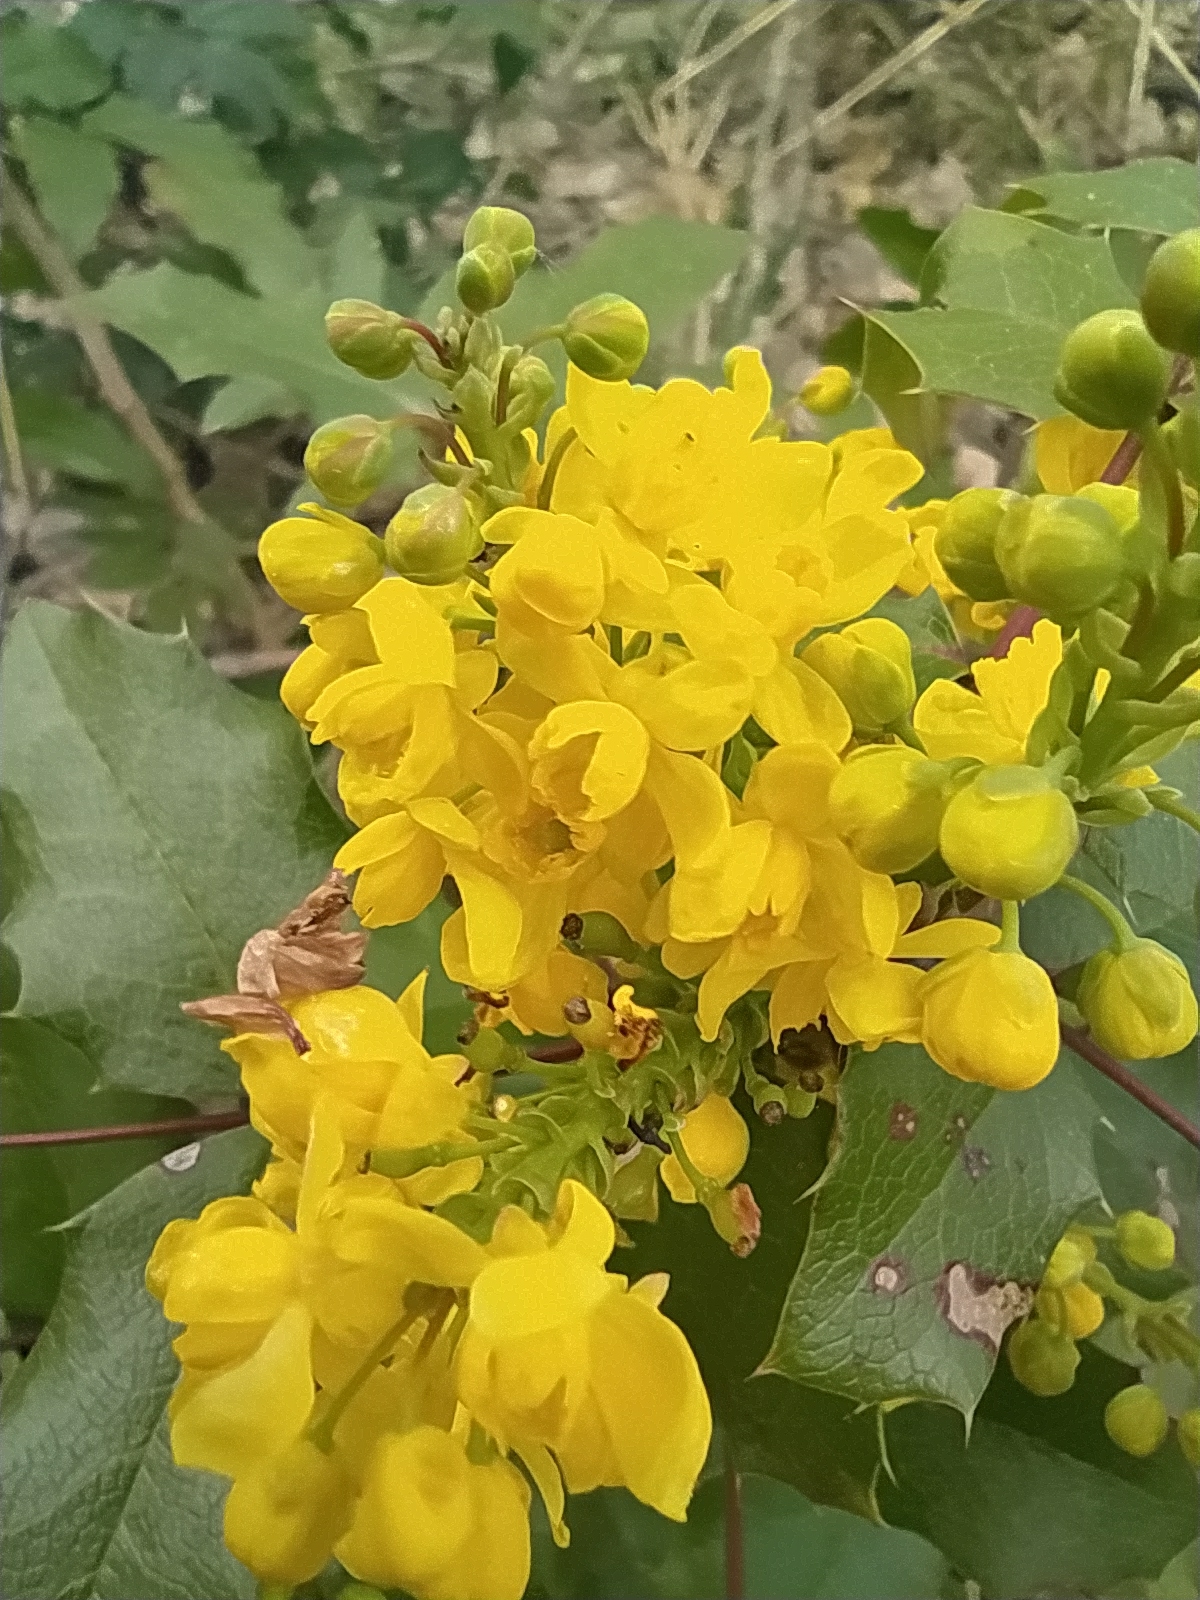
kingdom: Plantae
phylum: Tracheophyta
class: Magnoliopsida
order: Ranunculales
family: Berberidaceae
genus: Mahonia
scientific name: Mahonia aquifolium
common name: Oregon-grape
